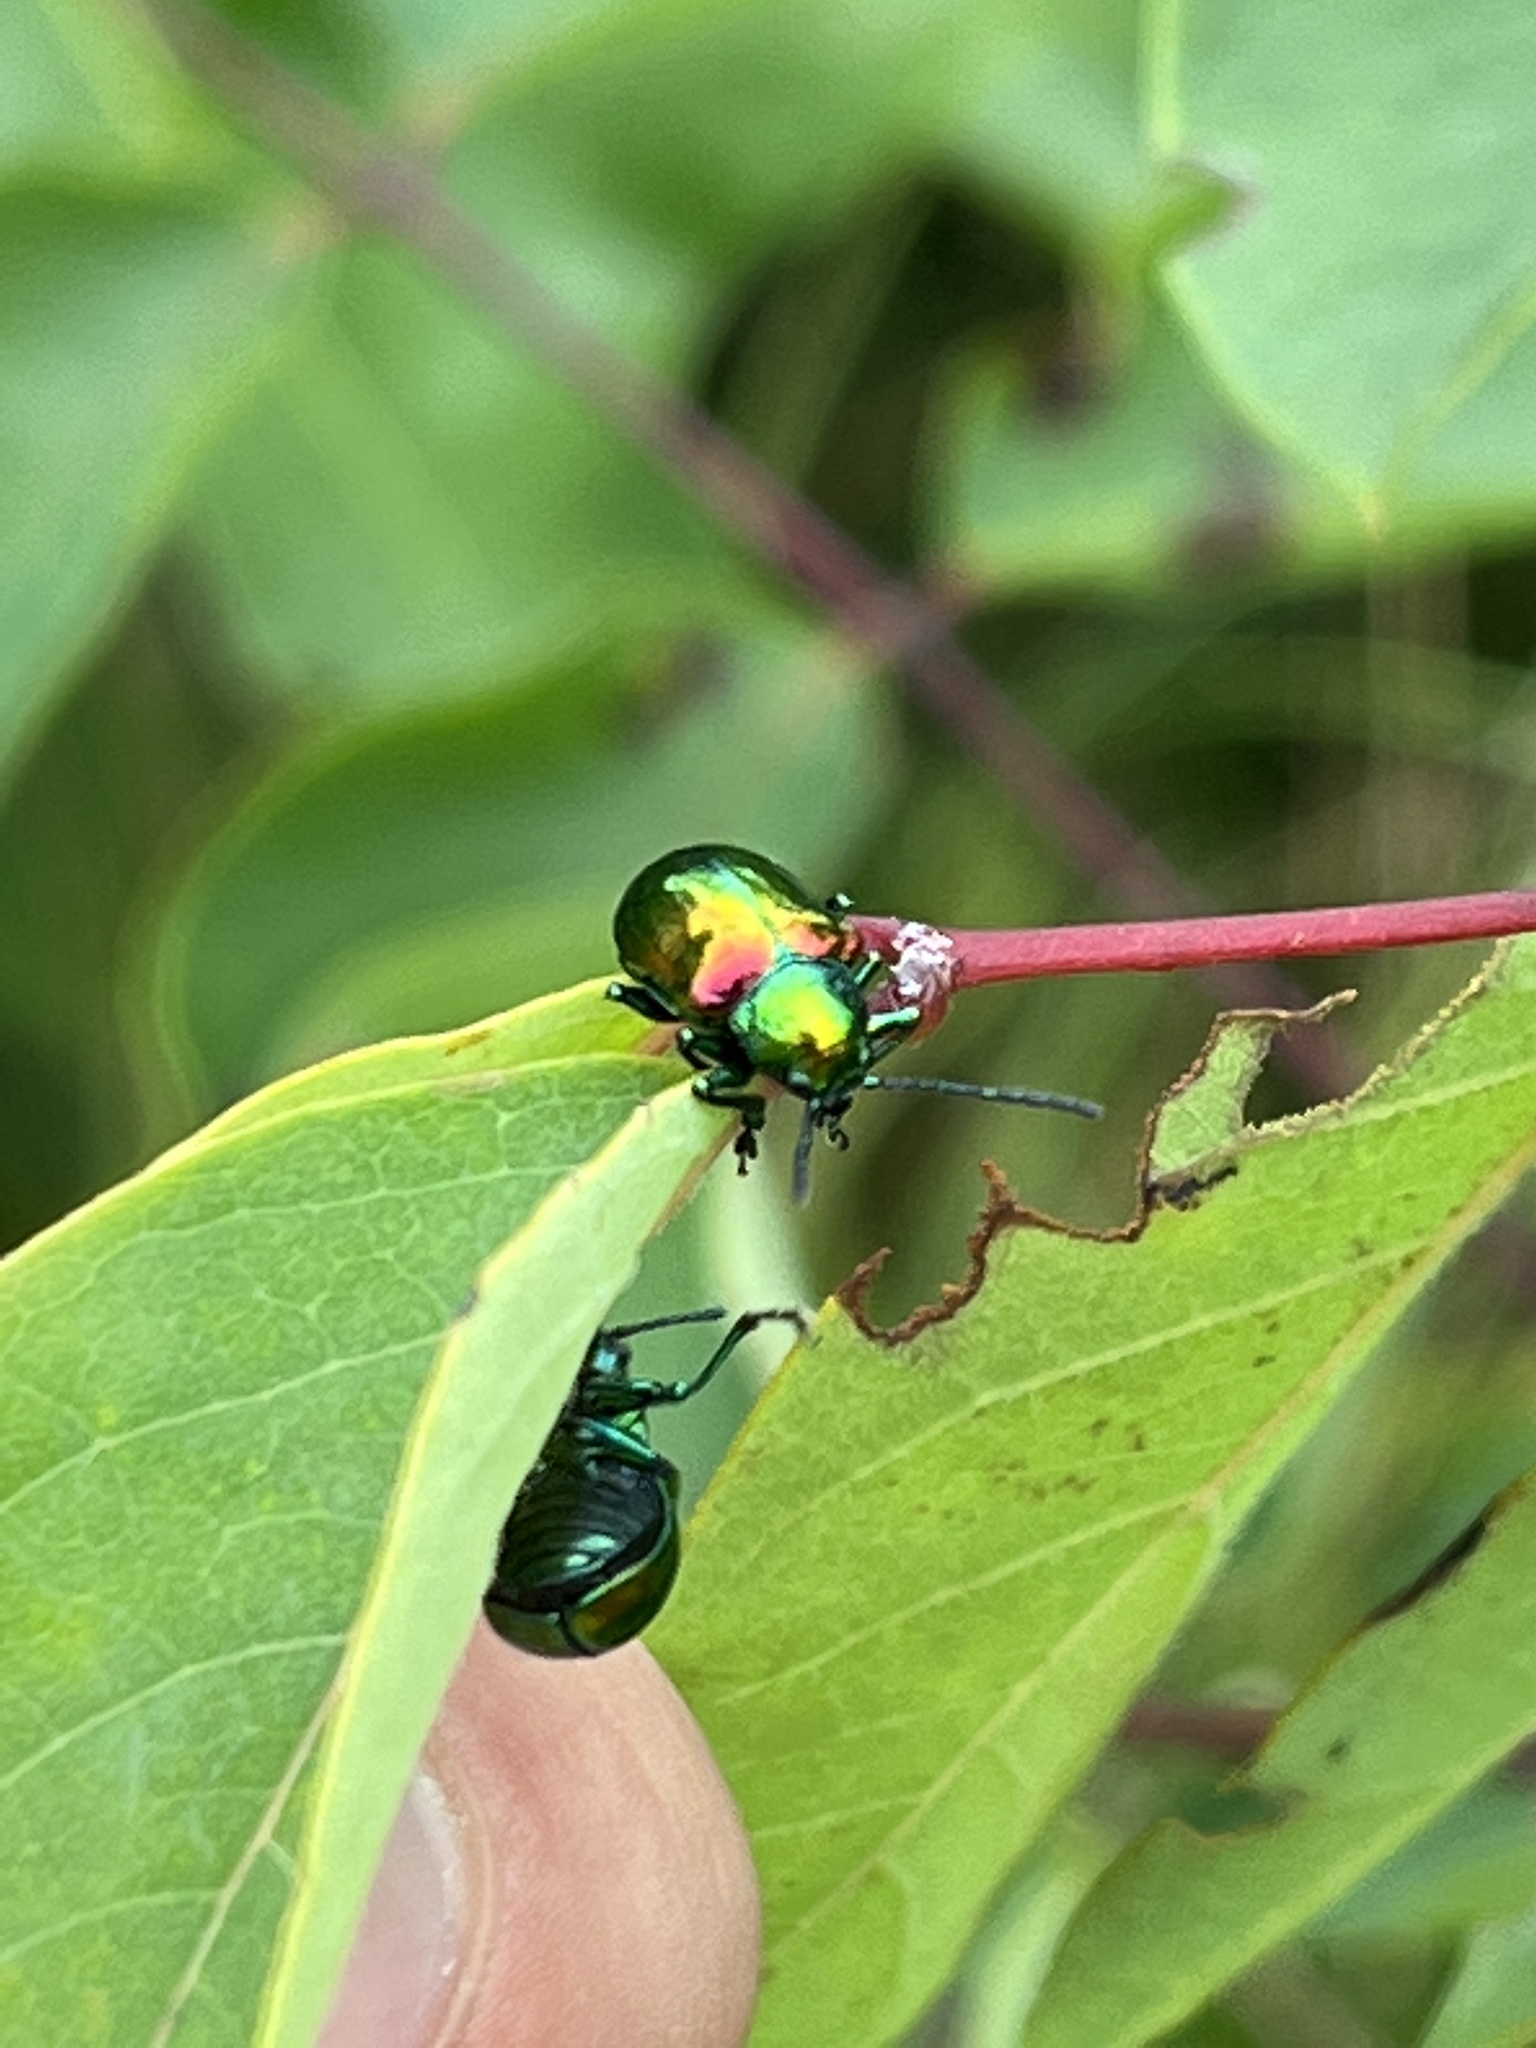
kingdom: Animalia
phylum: Arthropoda
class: Insecta
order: Coleoptera
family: Chrysomelidae
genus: Chrysochus
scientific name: Chrysochus auratus
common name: Dogbane leaf beetle
